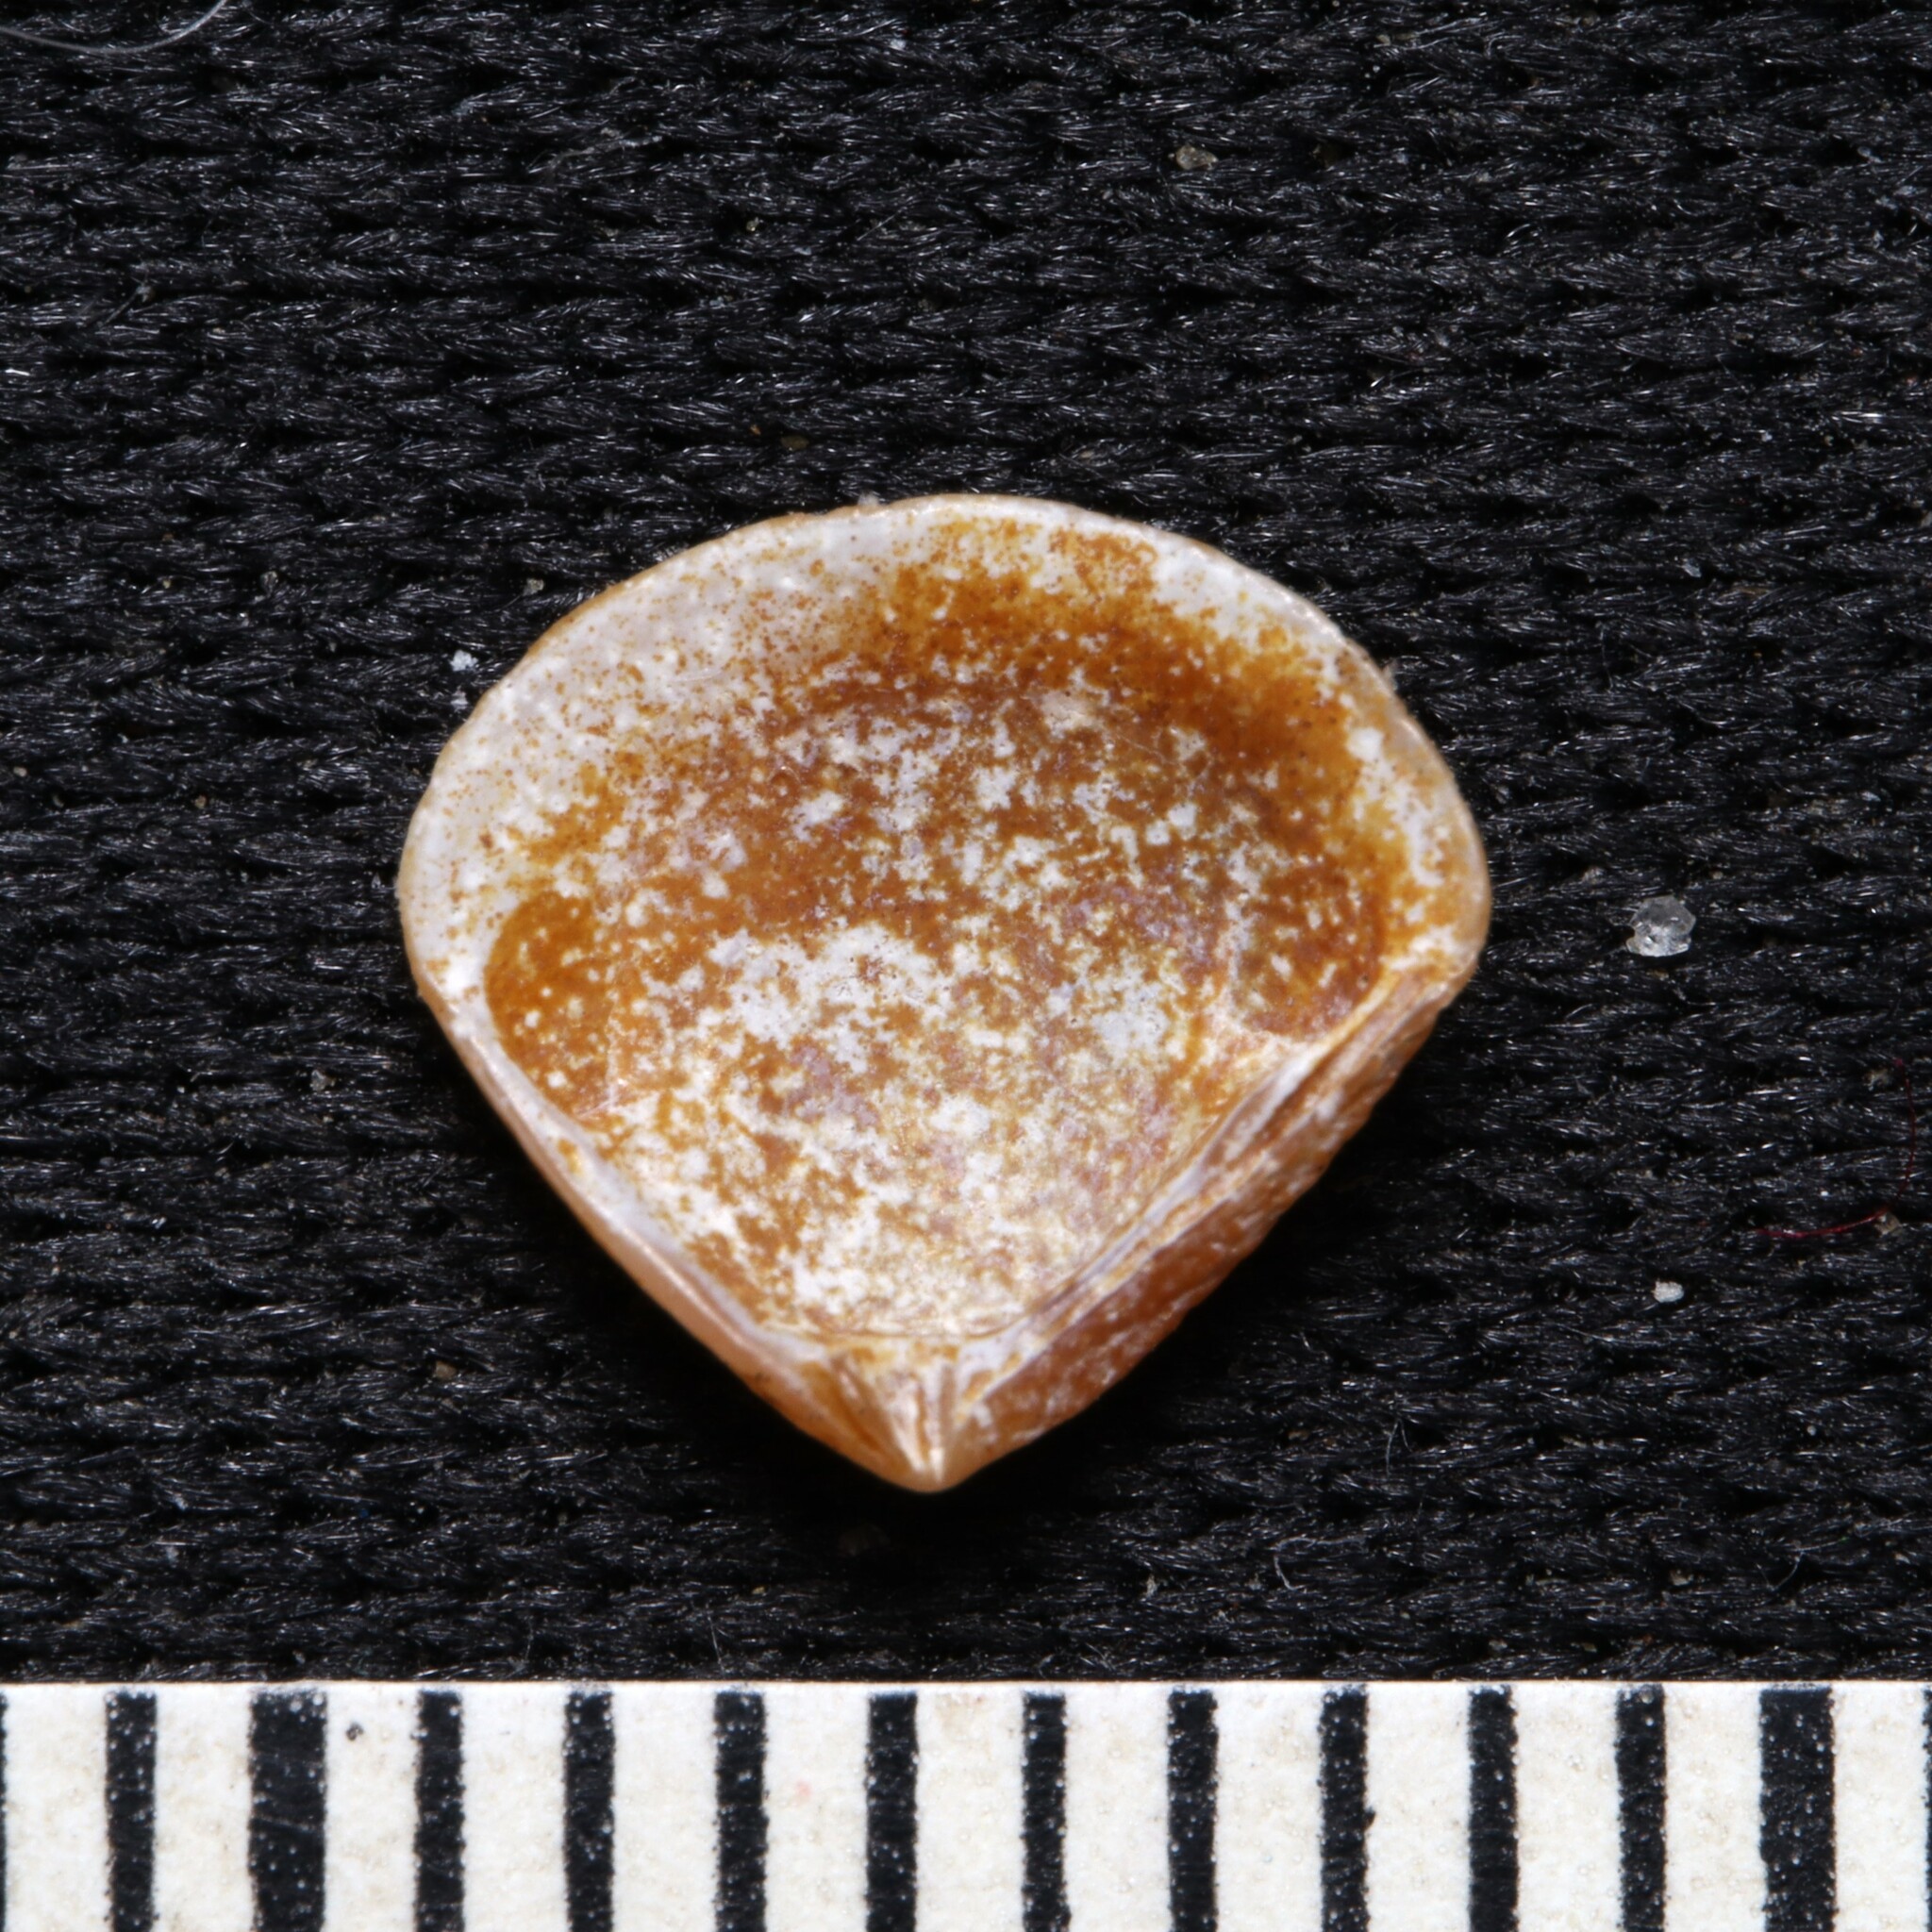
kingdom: Animalia
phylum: Mollusca
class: Bivalvia
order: Carditida
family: Crassatellidae
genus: Crassinella
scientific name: Crassinella lunulata
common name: Lunate crassinella
